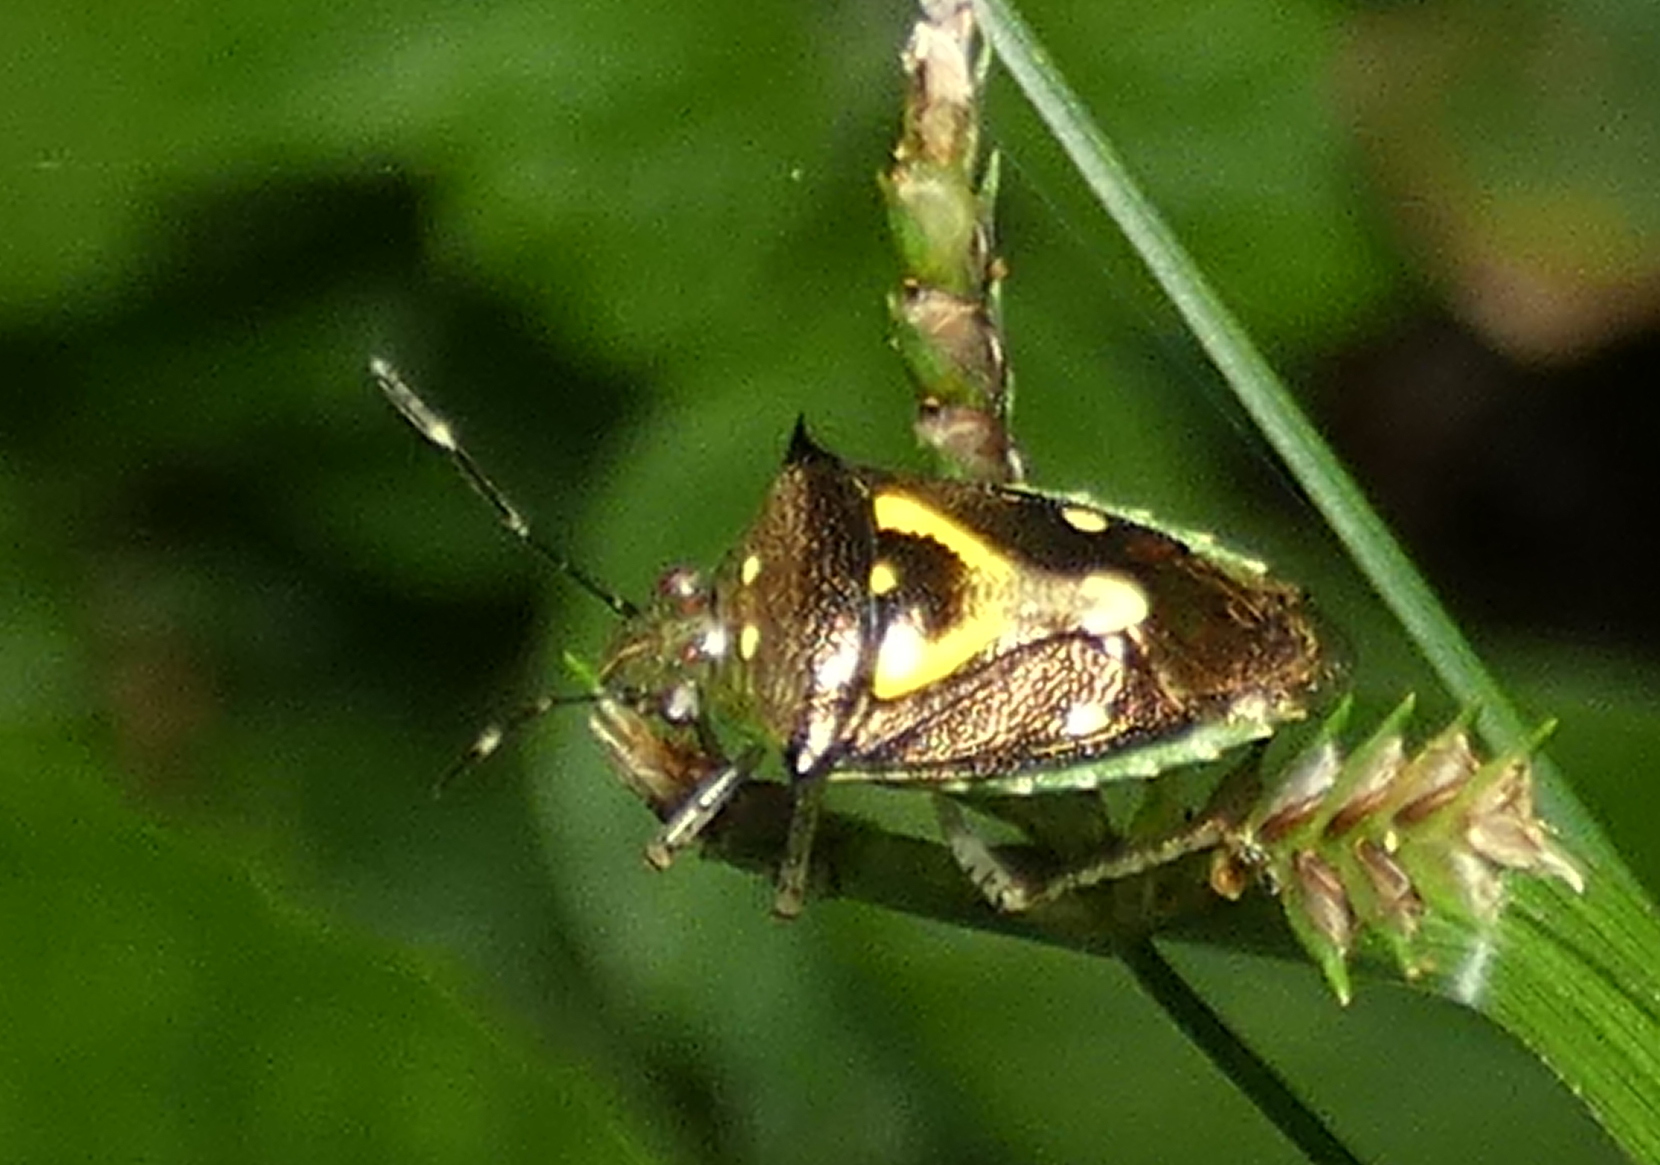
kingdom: Animalia
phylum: Arthropoda
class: Insecta
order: Hemiptera
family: Pentatomidae
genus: Mormidea
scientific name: Mormidea ypsilon
